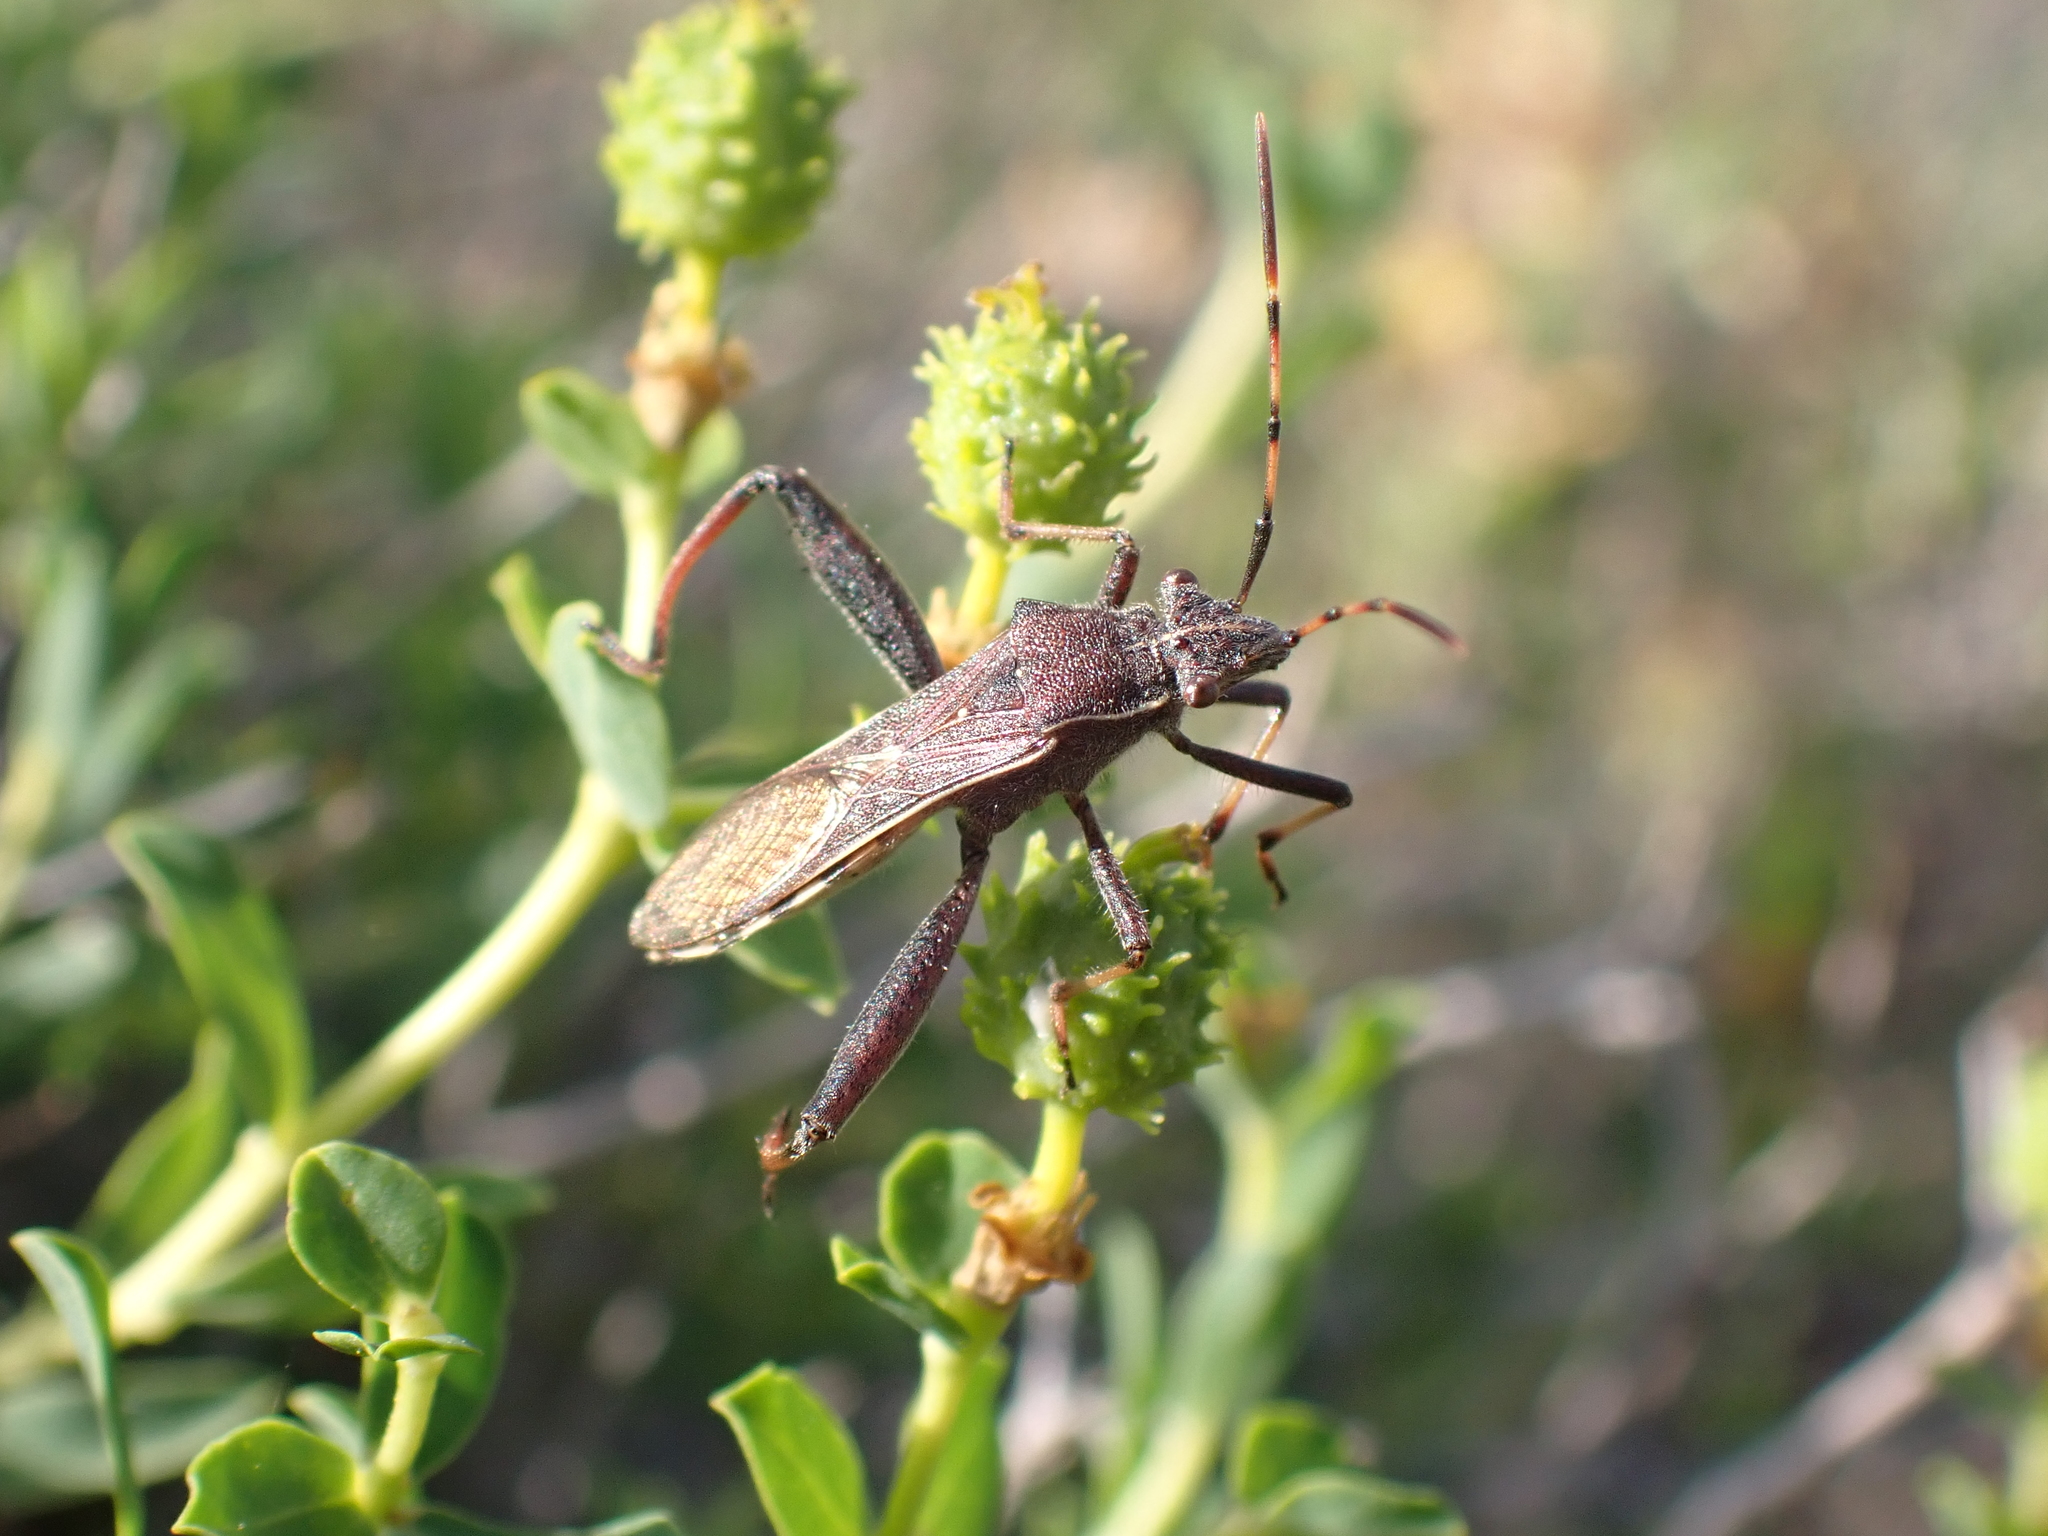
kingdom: Animalia
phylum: Arthropoda
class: Insecta
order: Hemiptera
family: Alydidae
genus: Camptopus
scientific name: Camptopus lateralis
